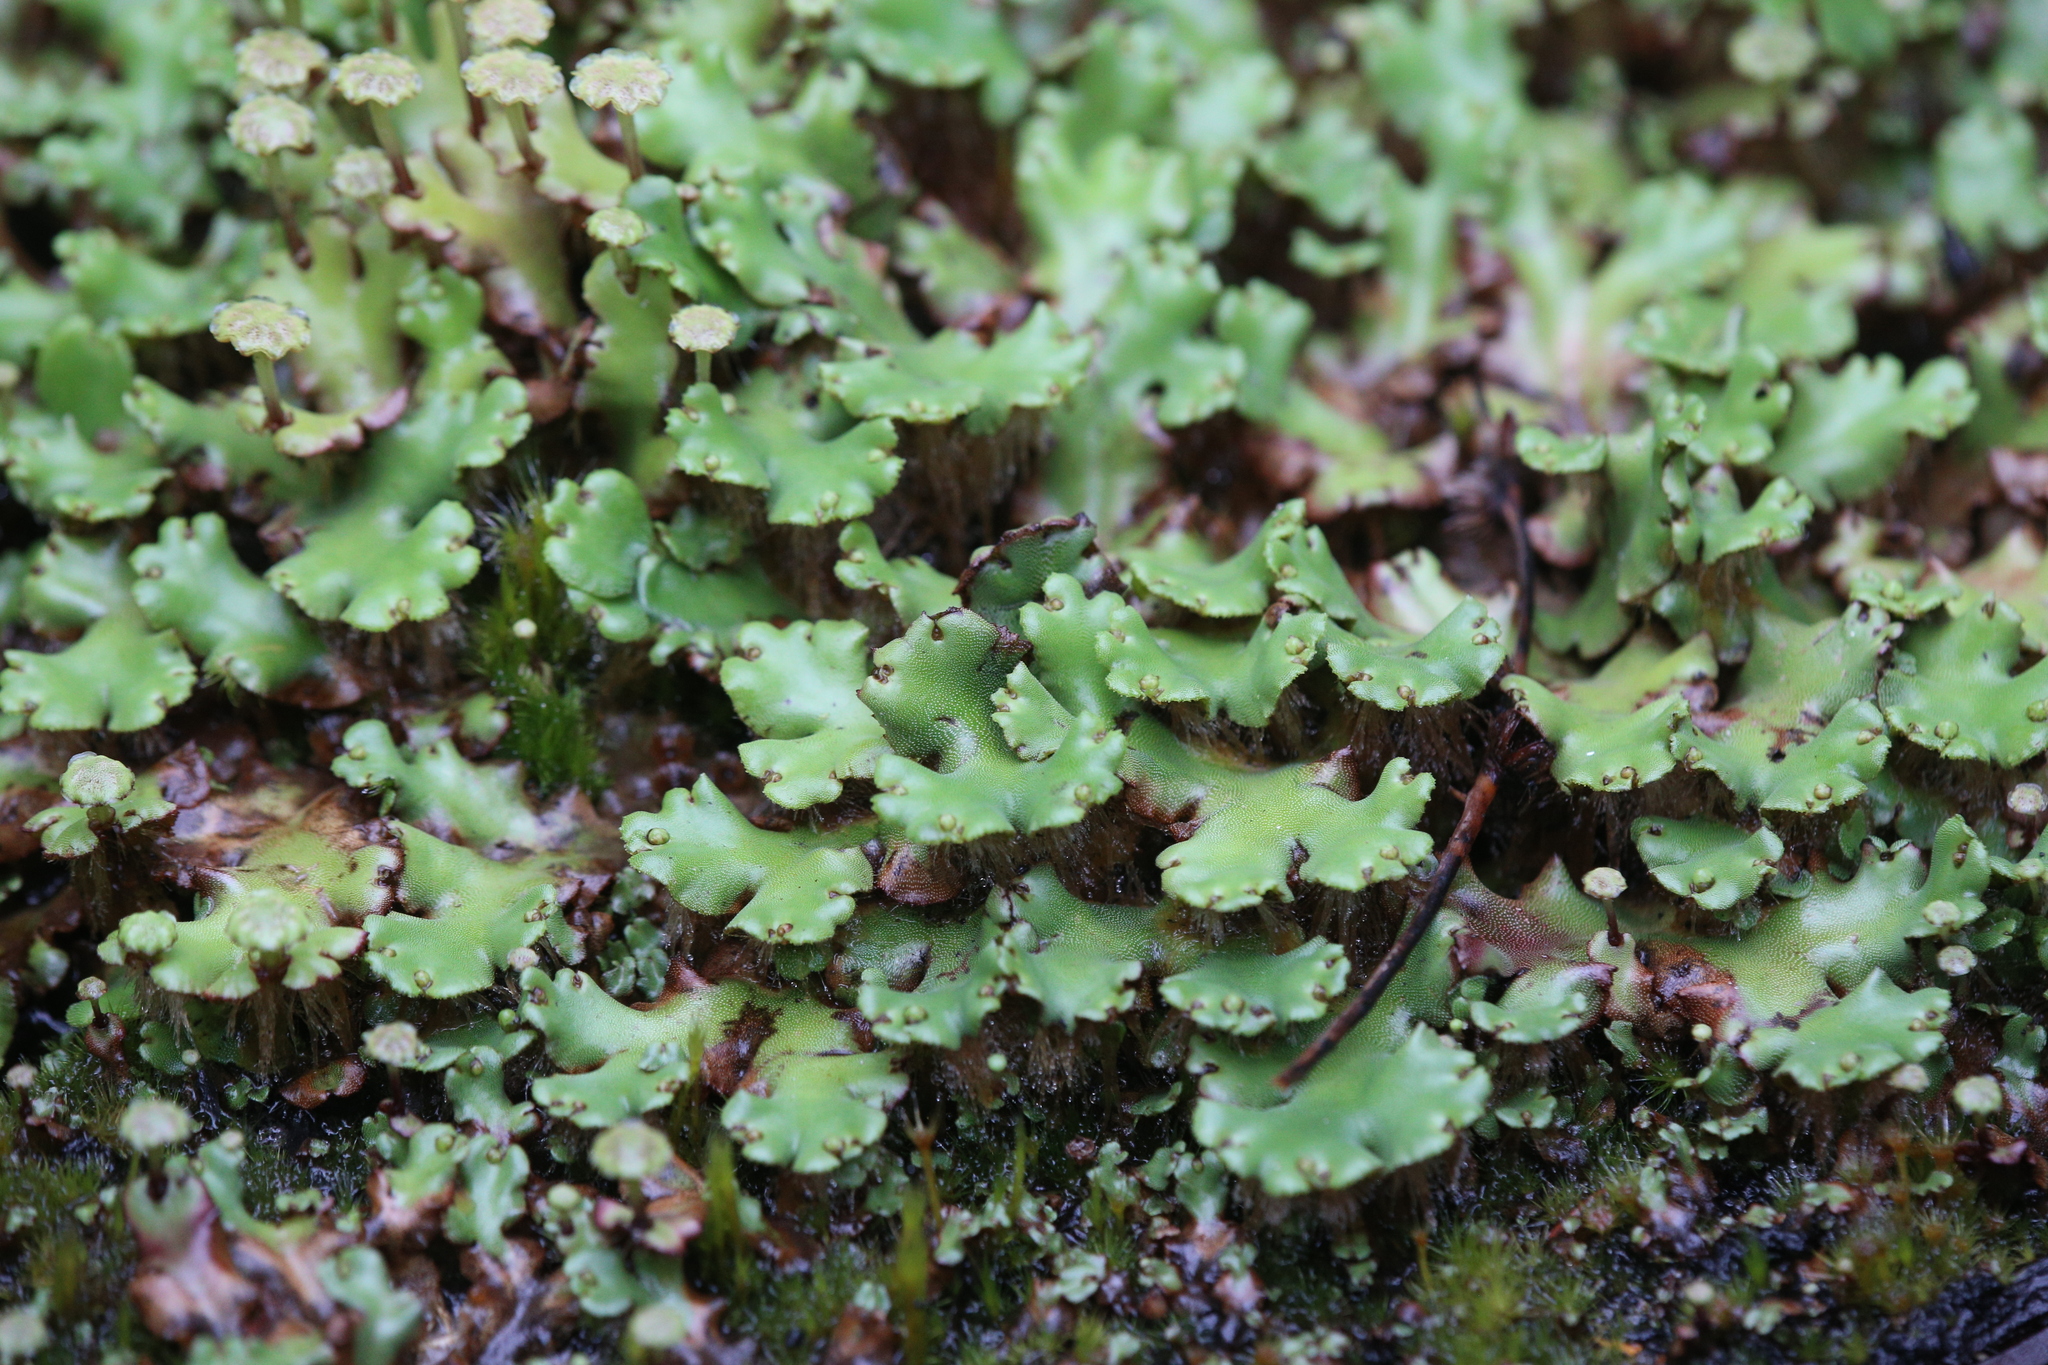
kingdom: Plantae
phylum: Marchantiophyta
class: Marchantiopsida
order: Marchantiales
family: Marchantiaceae
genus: Marchantia
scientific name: Marchantia berteroana
